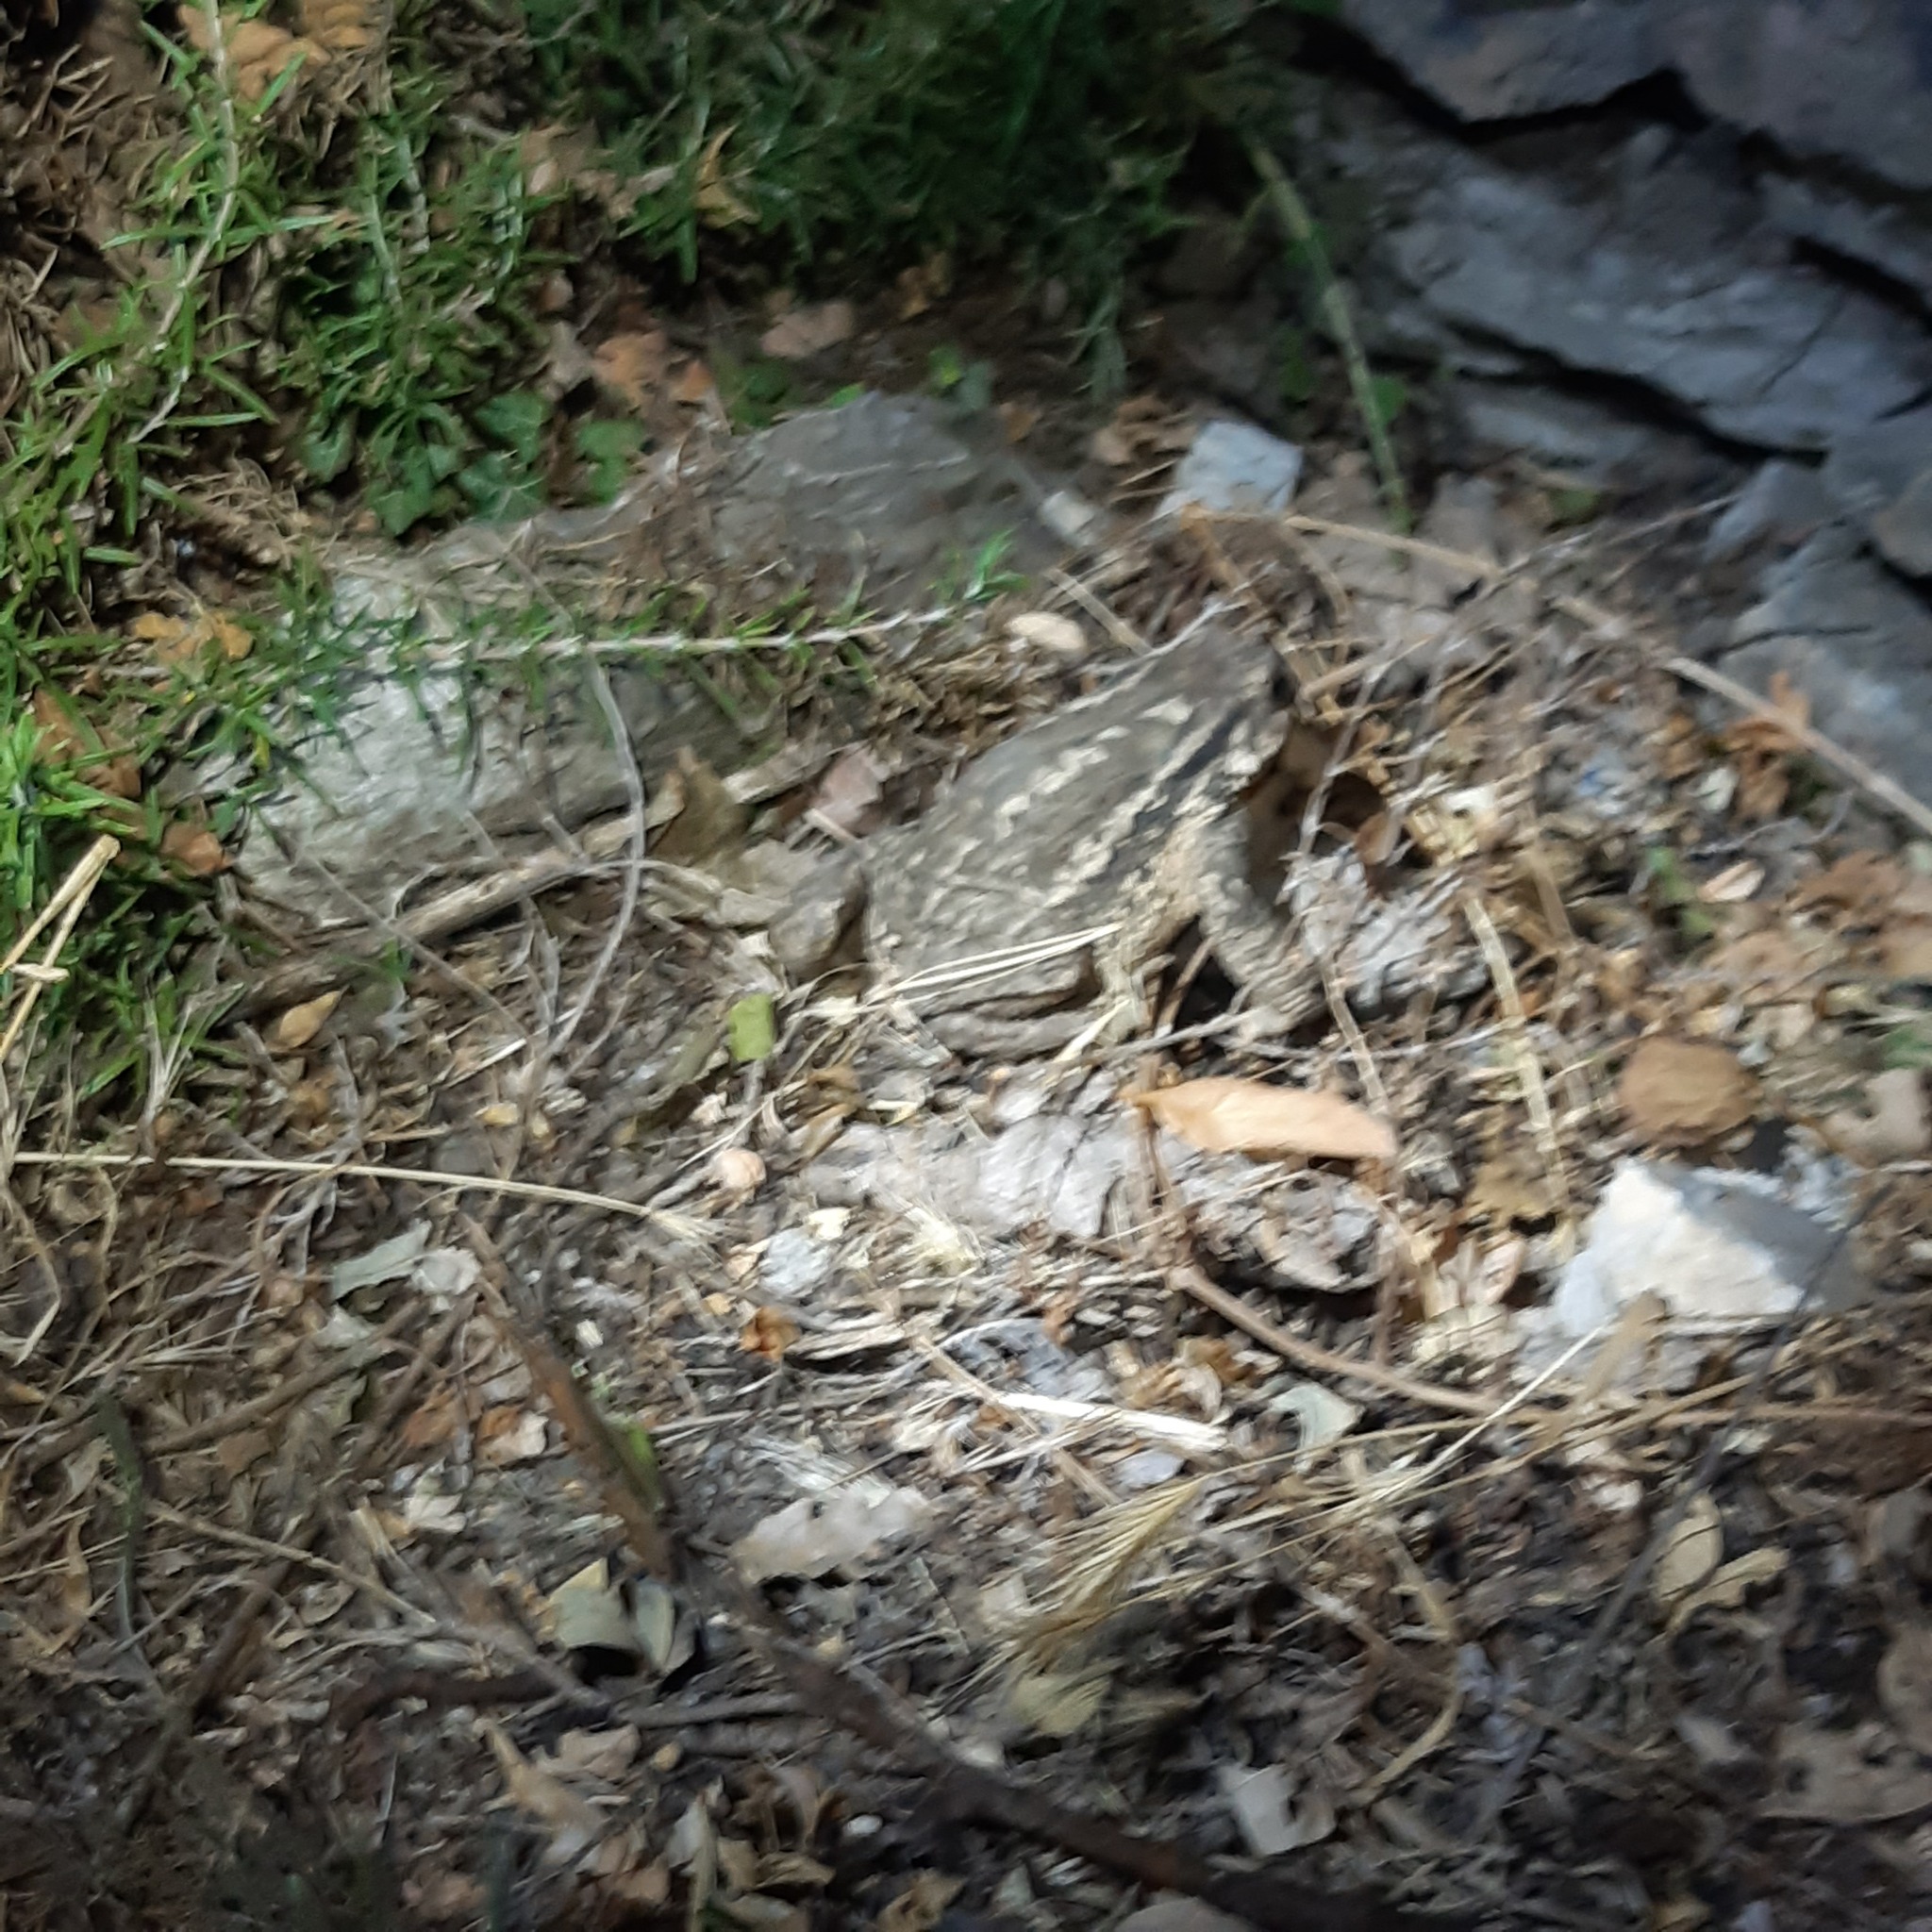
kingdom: Animalia
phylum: Chordata
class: Amphibia
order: Anura
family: Bufonidae
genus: Bufo
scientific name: Bufo spinosus
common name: Western common toad
